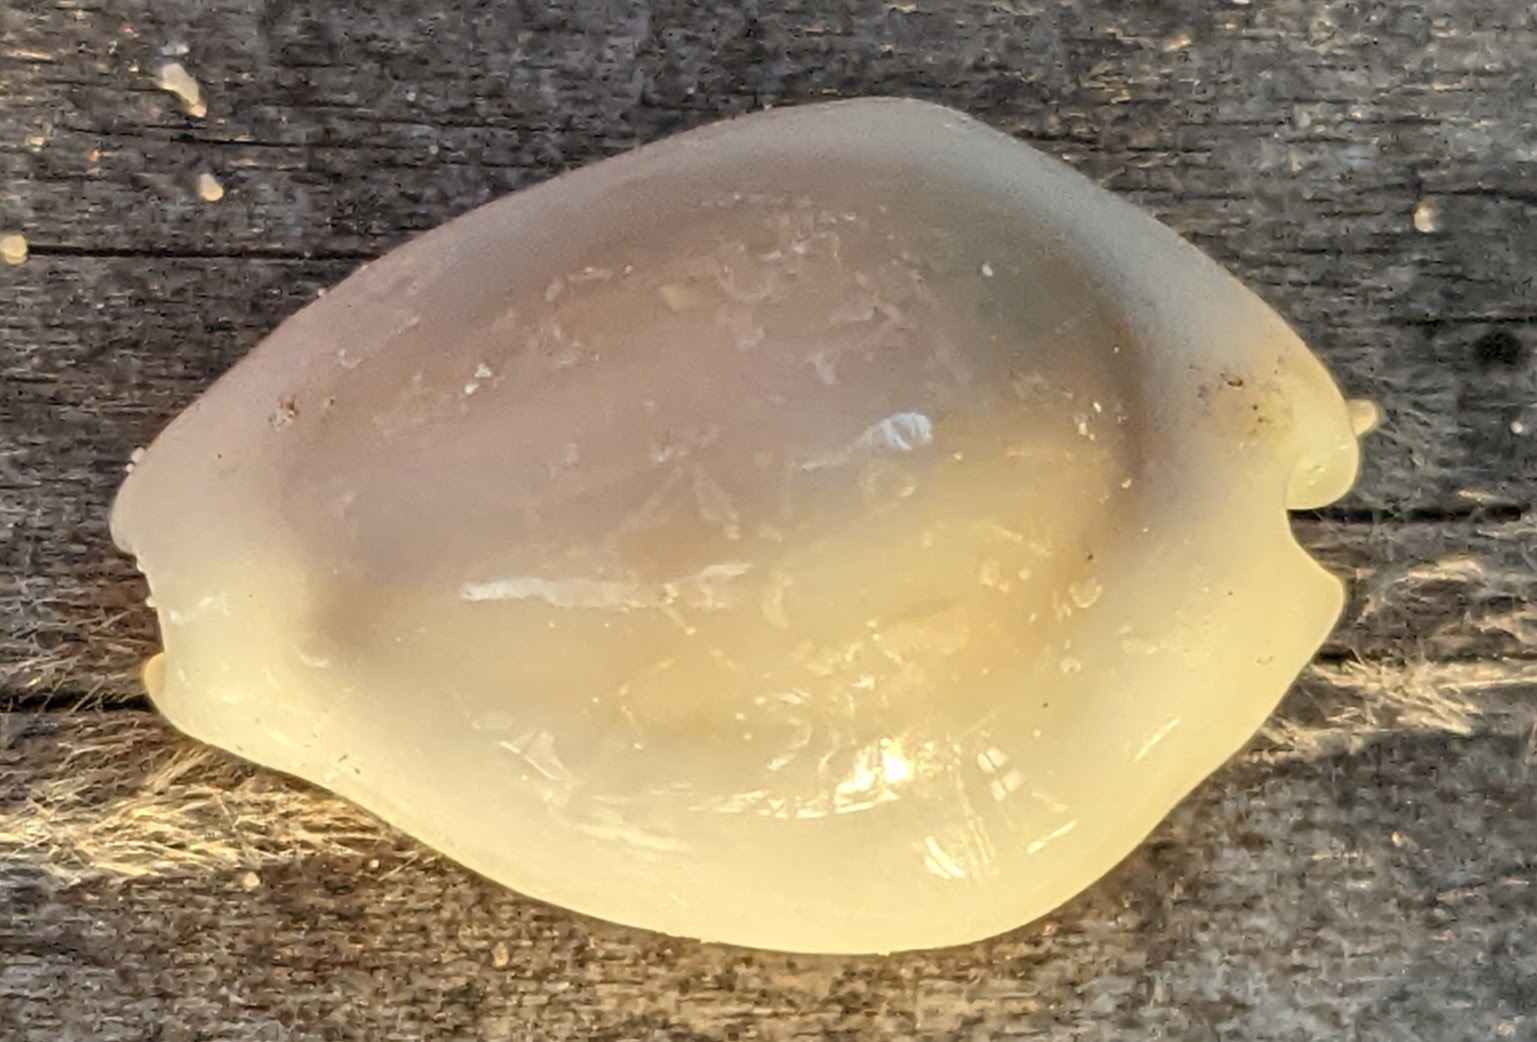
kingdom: Animalia
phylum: Mollusca
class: Gastropoda
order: Littorinimorpha
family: Cypraeidae
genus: Monetaria
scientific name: Monetaria moneta
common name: Money cowrie
